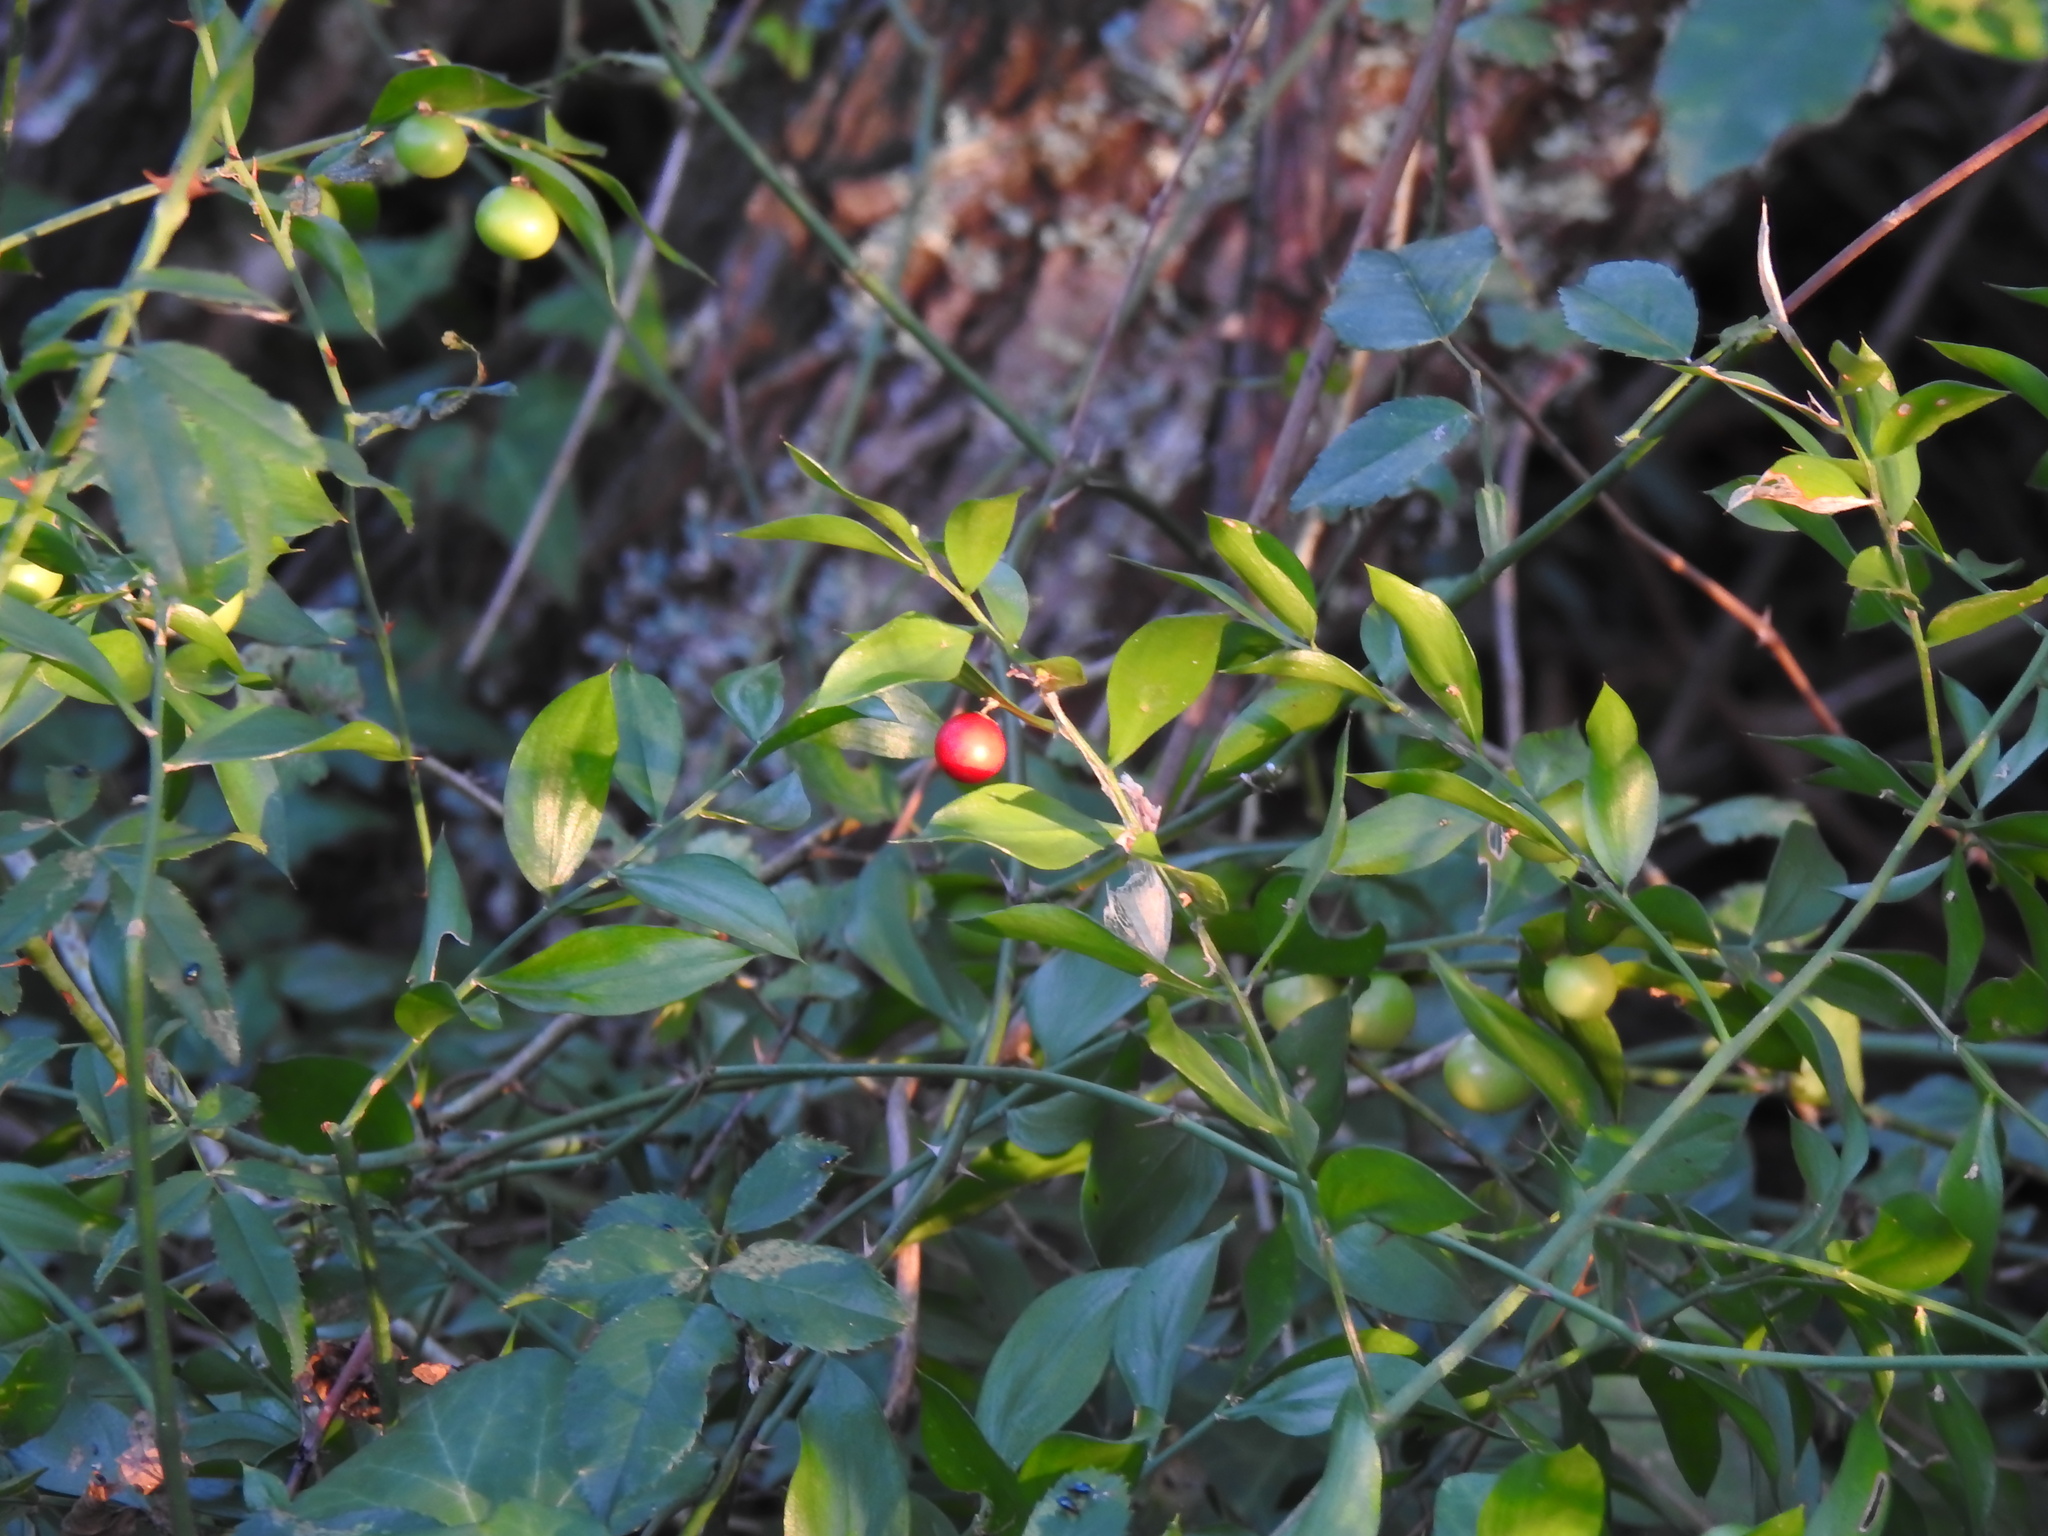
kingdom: Plantae
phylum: Tracheophyta
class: Liliopsida
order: Asparagales
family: Asparagaceae
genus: Ruscus
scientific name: Ruscus aculeatus
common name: Butcher's-broom
